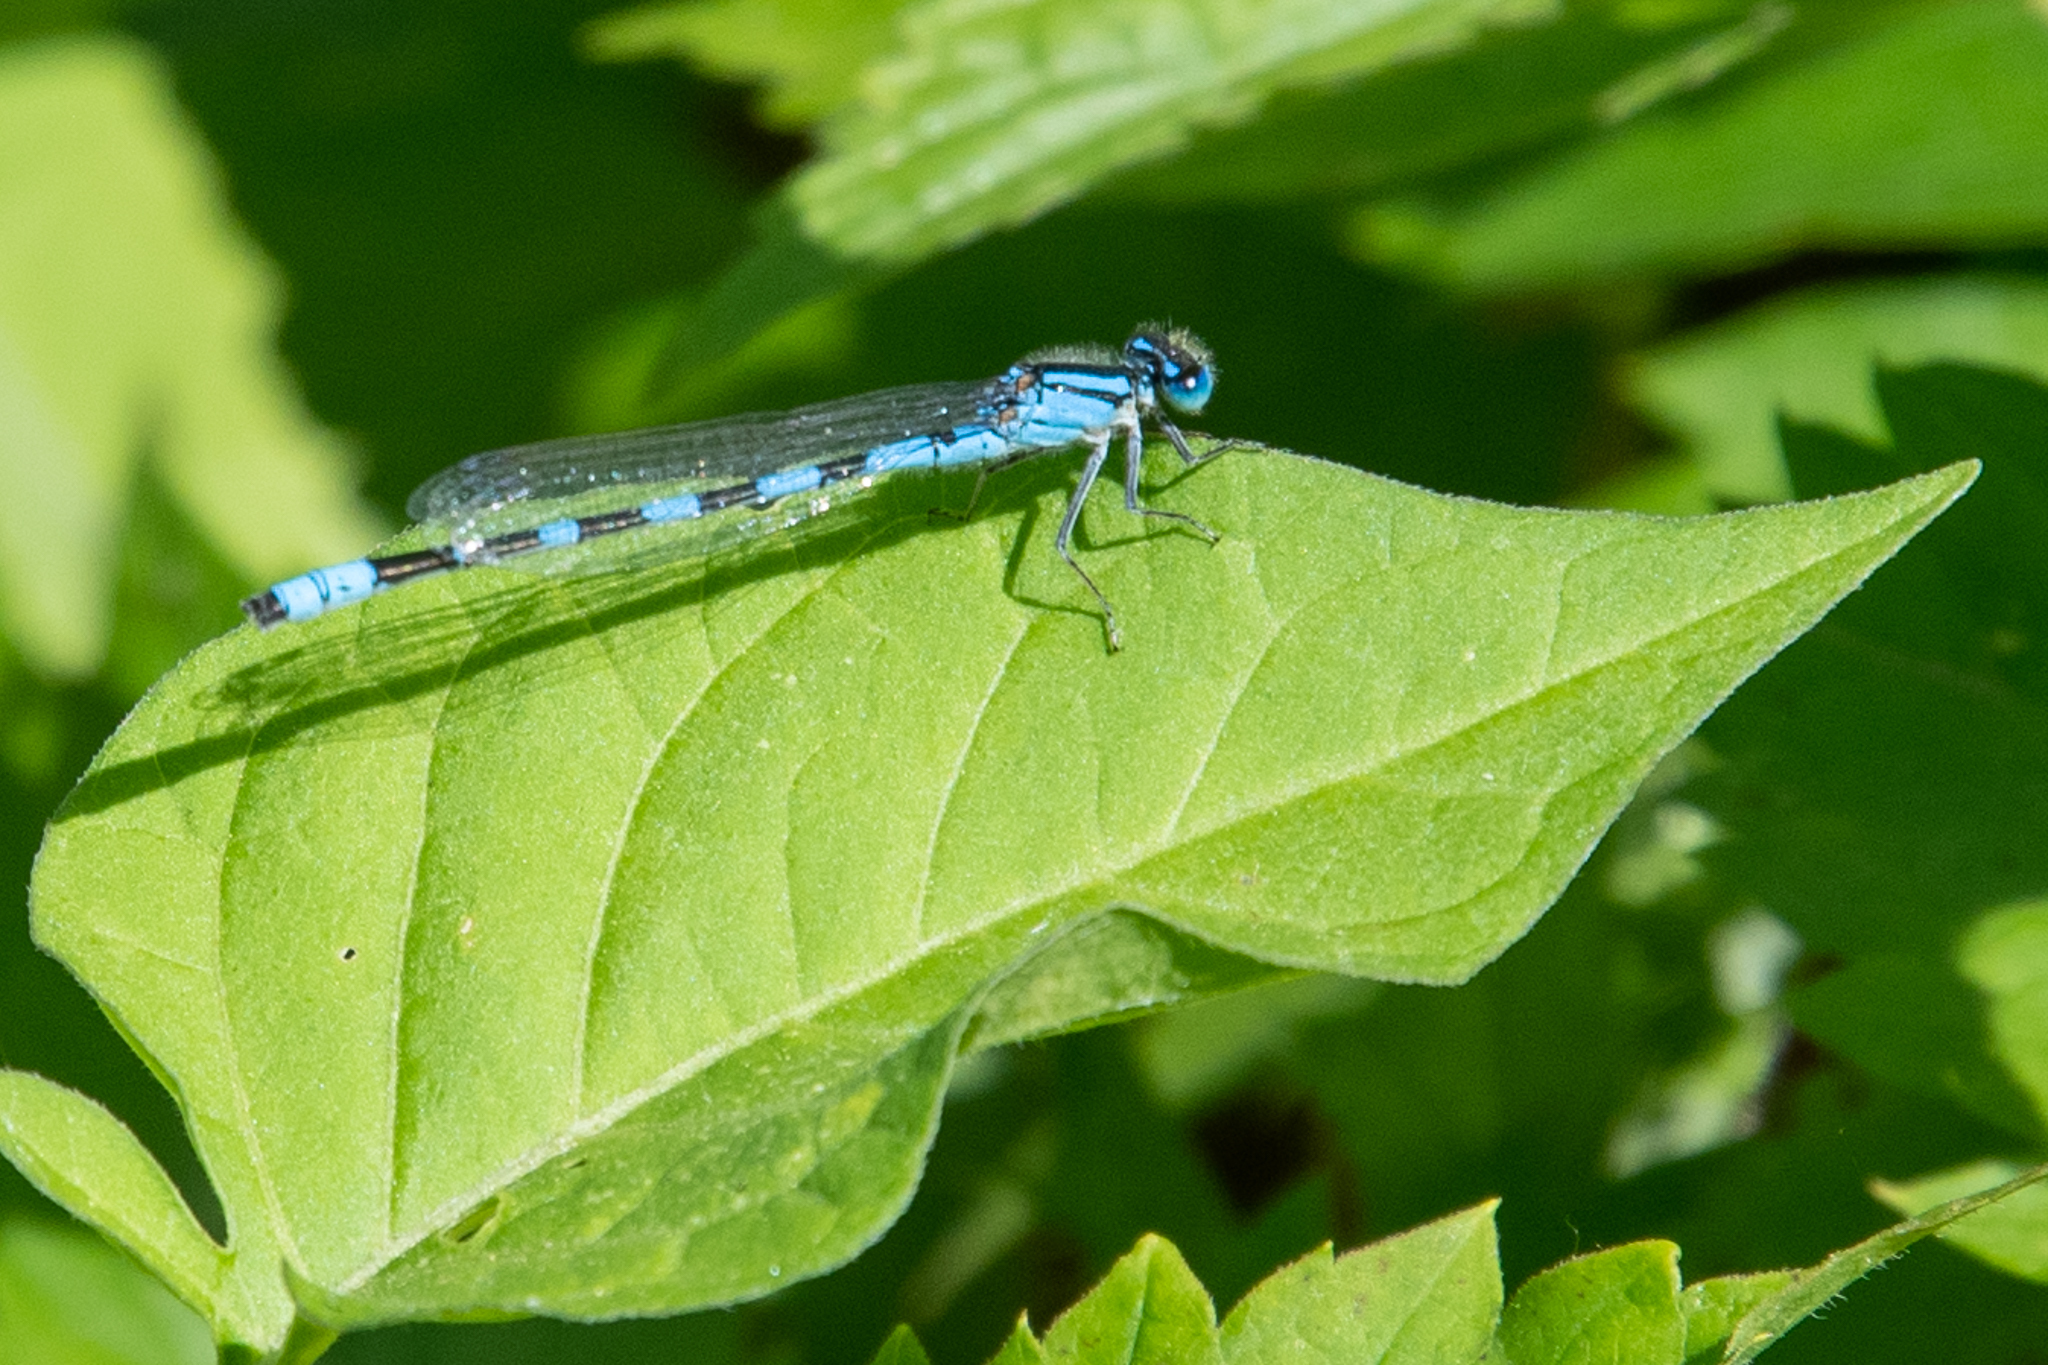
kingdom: Animalia
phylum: Arthropoda
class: Insecta
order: Odonata
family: Coenagrionidae
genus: Enallagma
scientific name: Enallagma carunculatum
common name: Tule bluet
